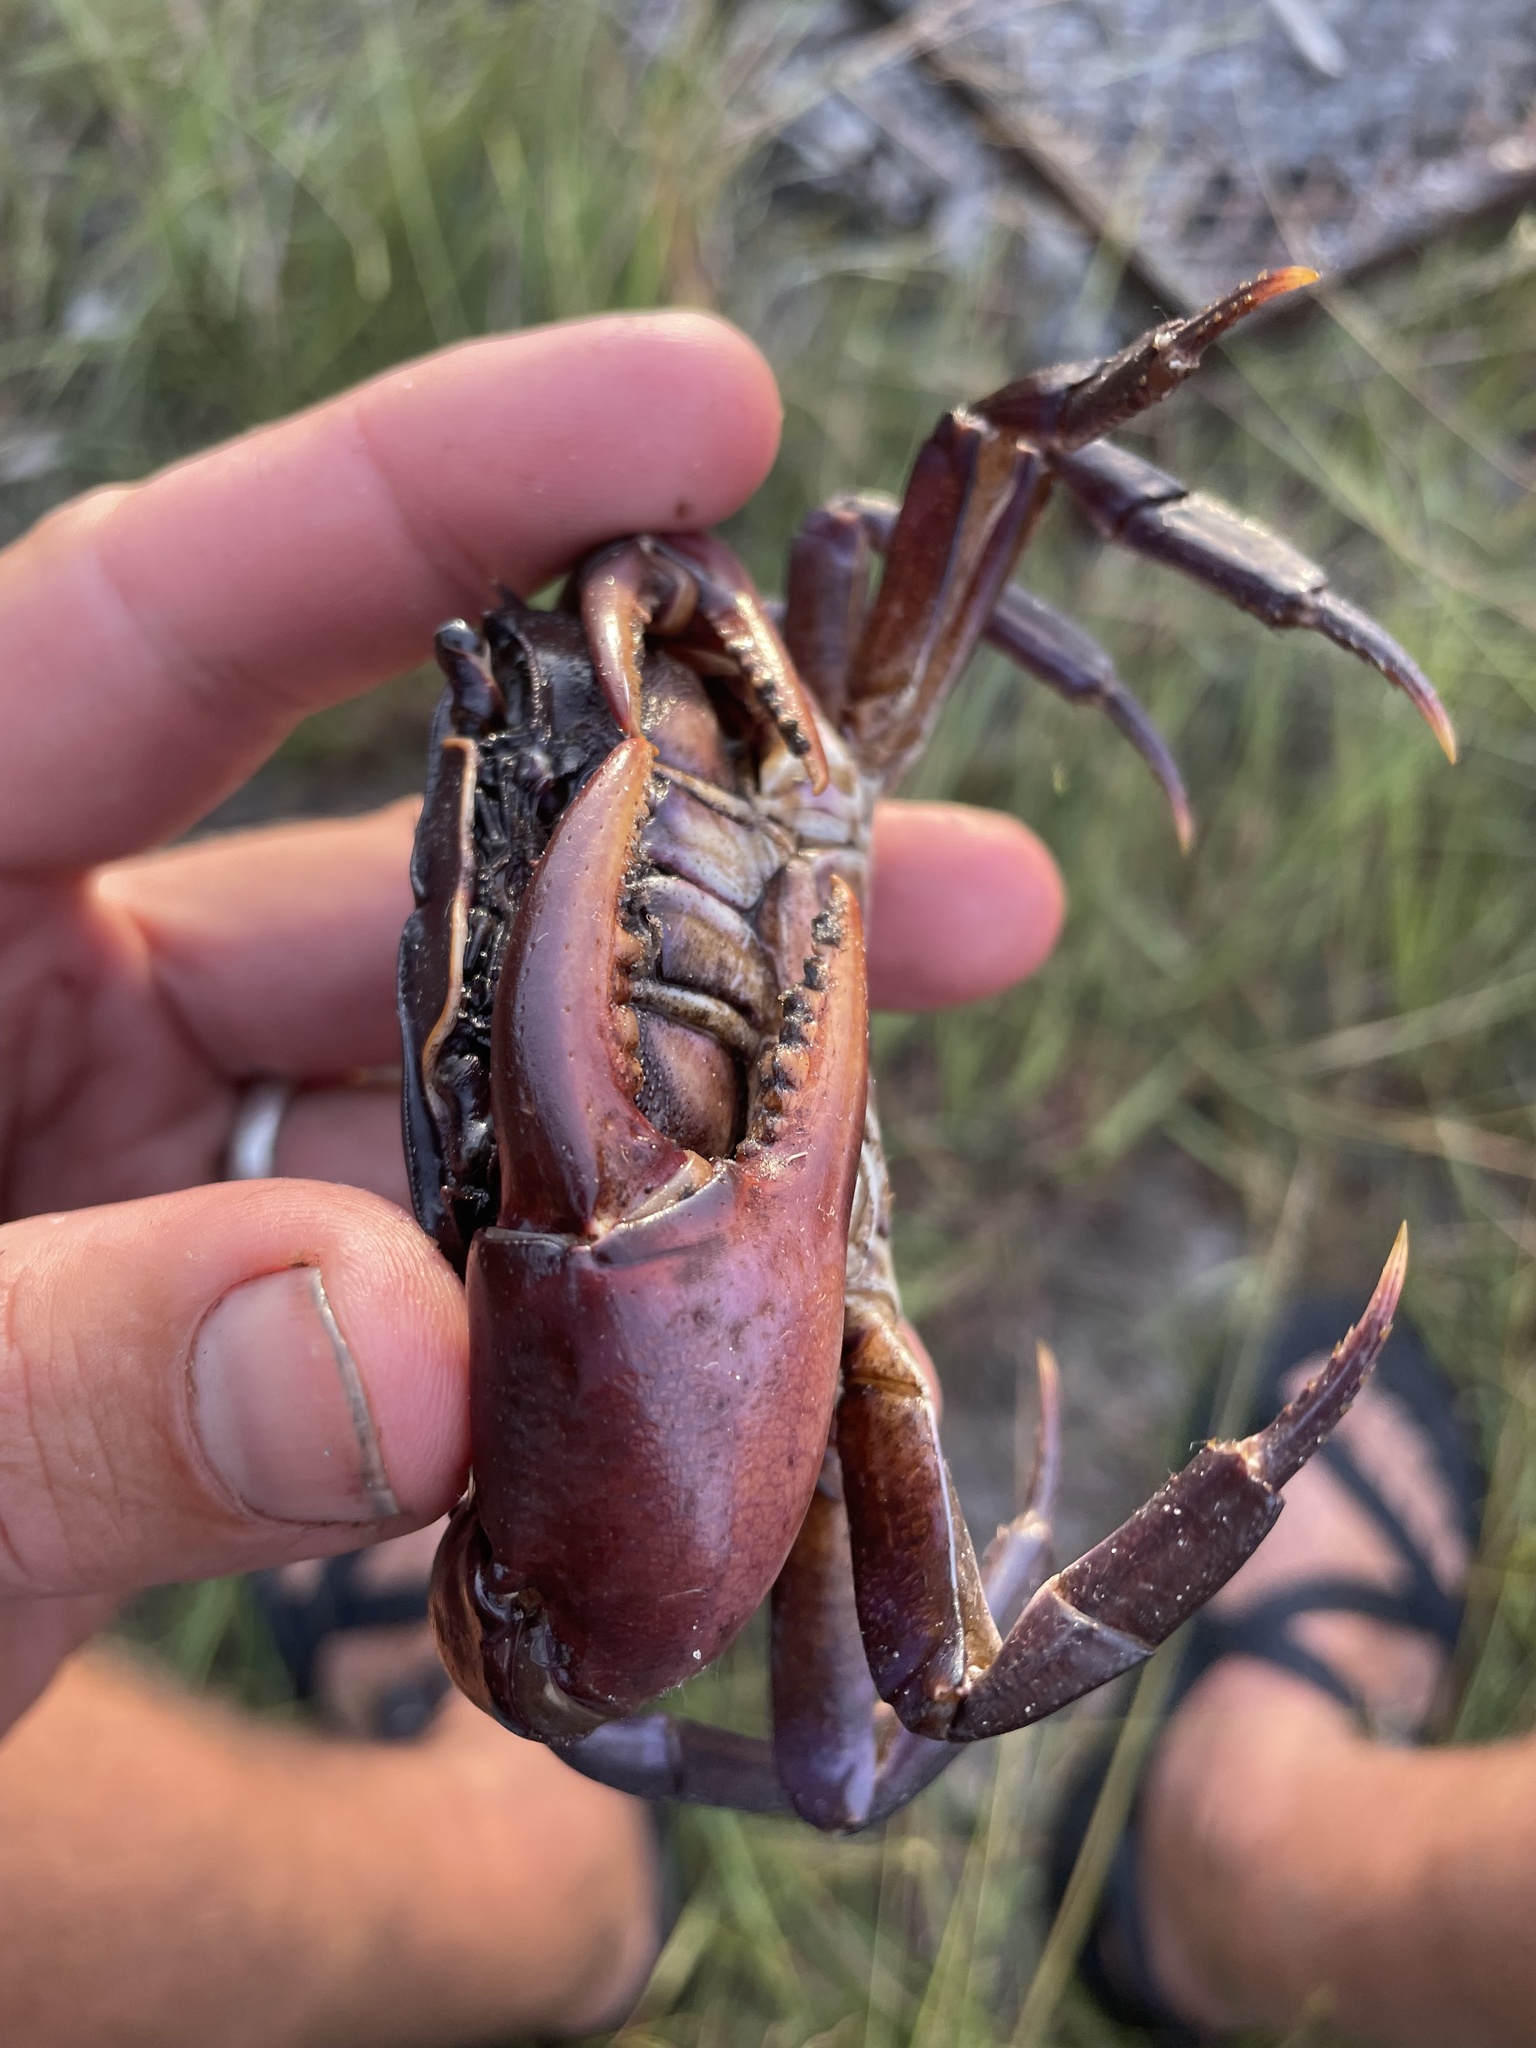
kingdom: Animalia
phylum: Arthropoda
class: Malacostraca
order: Decapoda
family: Potamonautidae
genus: Potamonautes
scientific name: Potamonautes bayonianus
